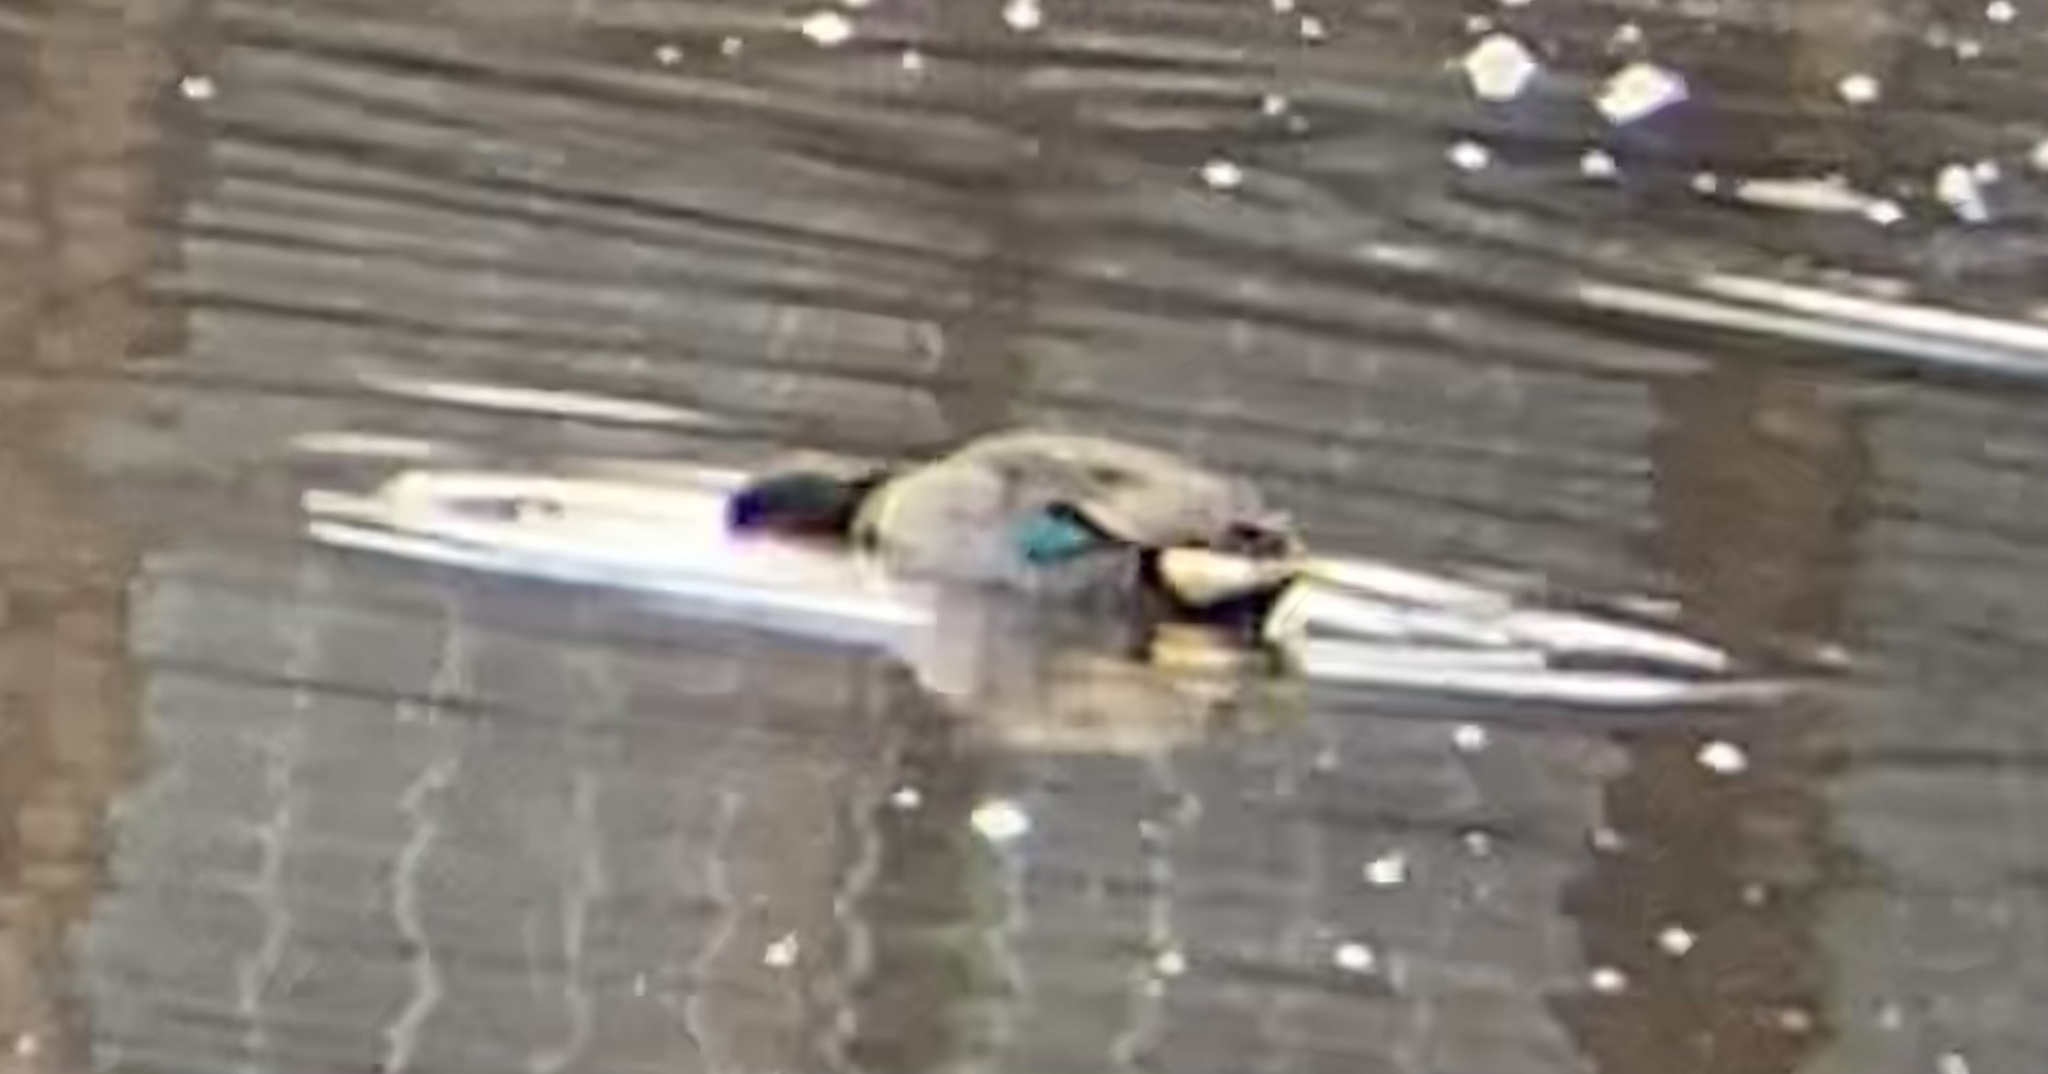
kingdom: Animalia
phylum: Chordata
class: Aves
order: Anseriformes
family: Anatidae
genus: Anas
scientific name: Anas crecca
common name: Eurasian teal
